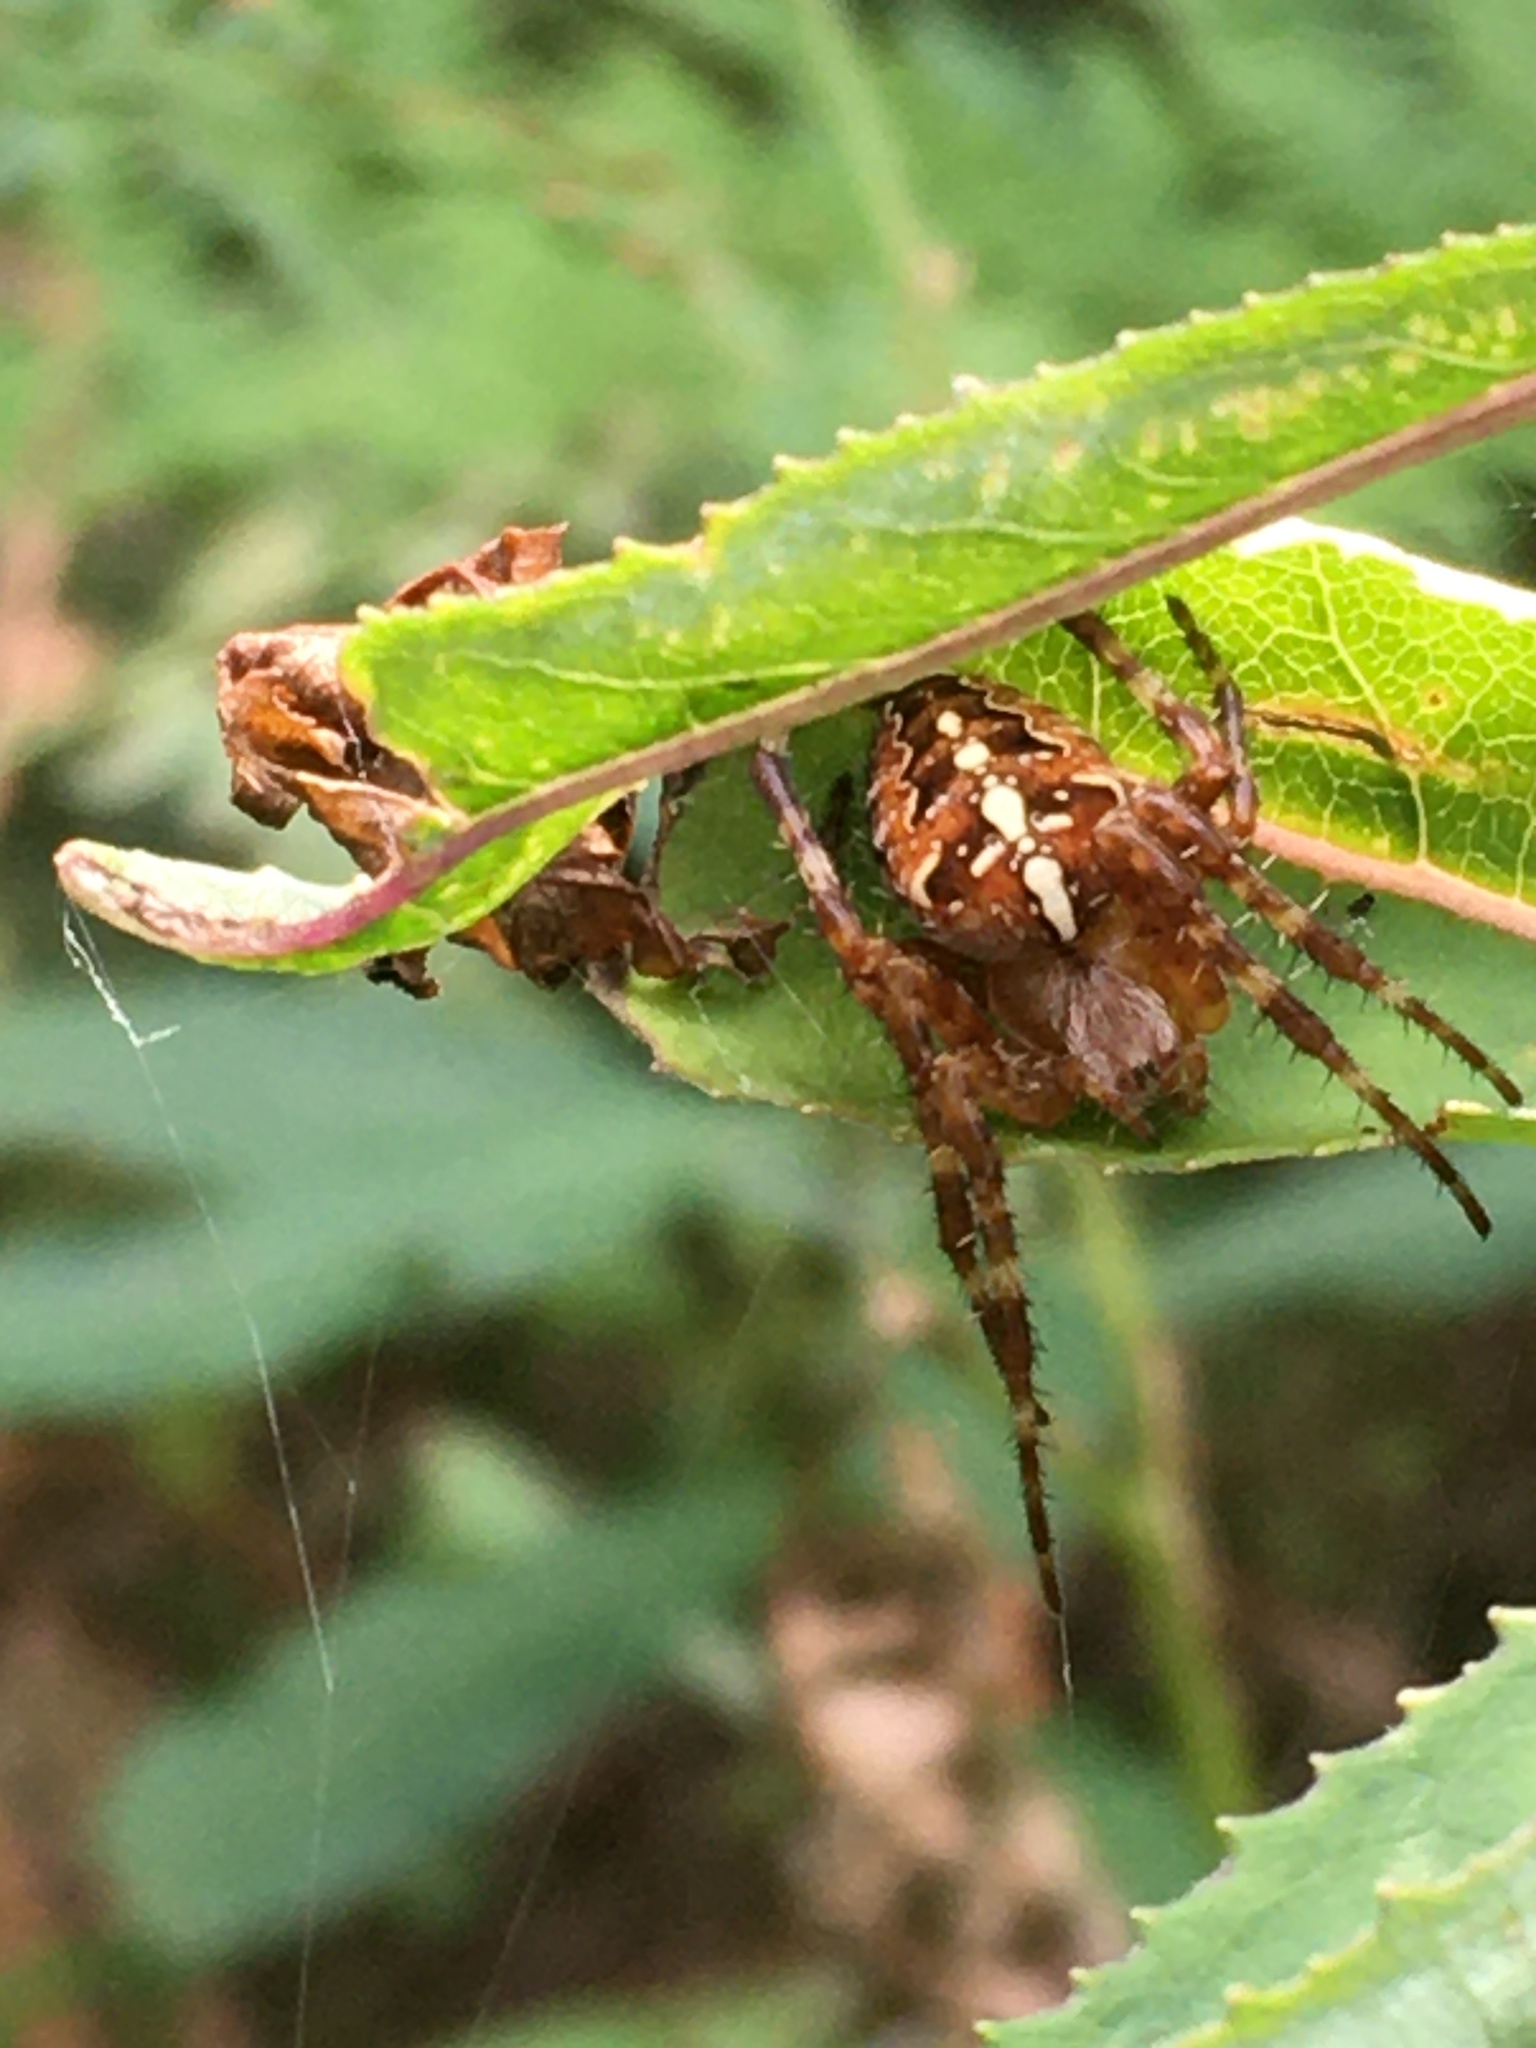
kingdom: Animalia
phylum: Arthropoda
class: Arachnida
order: Araneae
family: Araneidae
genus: Araneus
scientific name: Araneus diadematus
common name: Cross orbweaver
